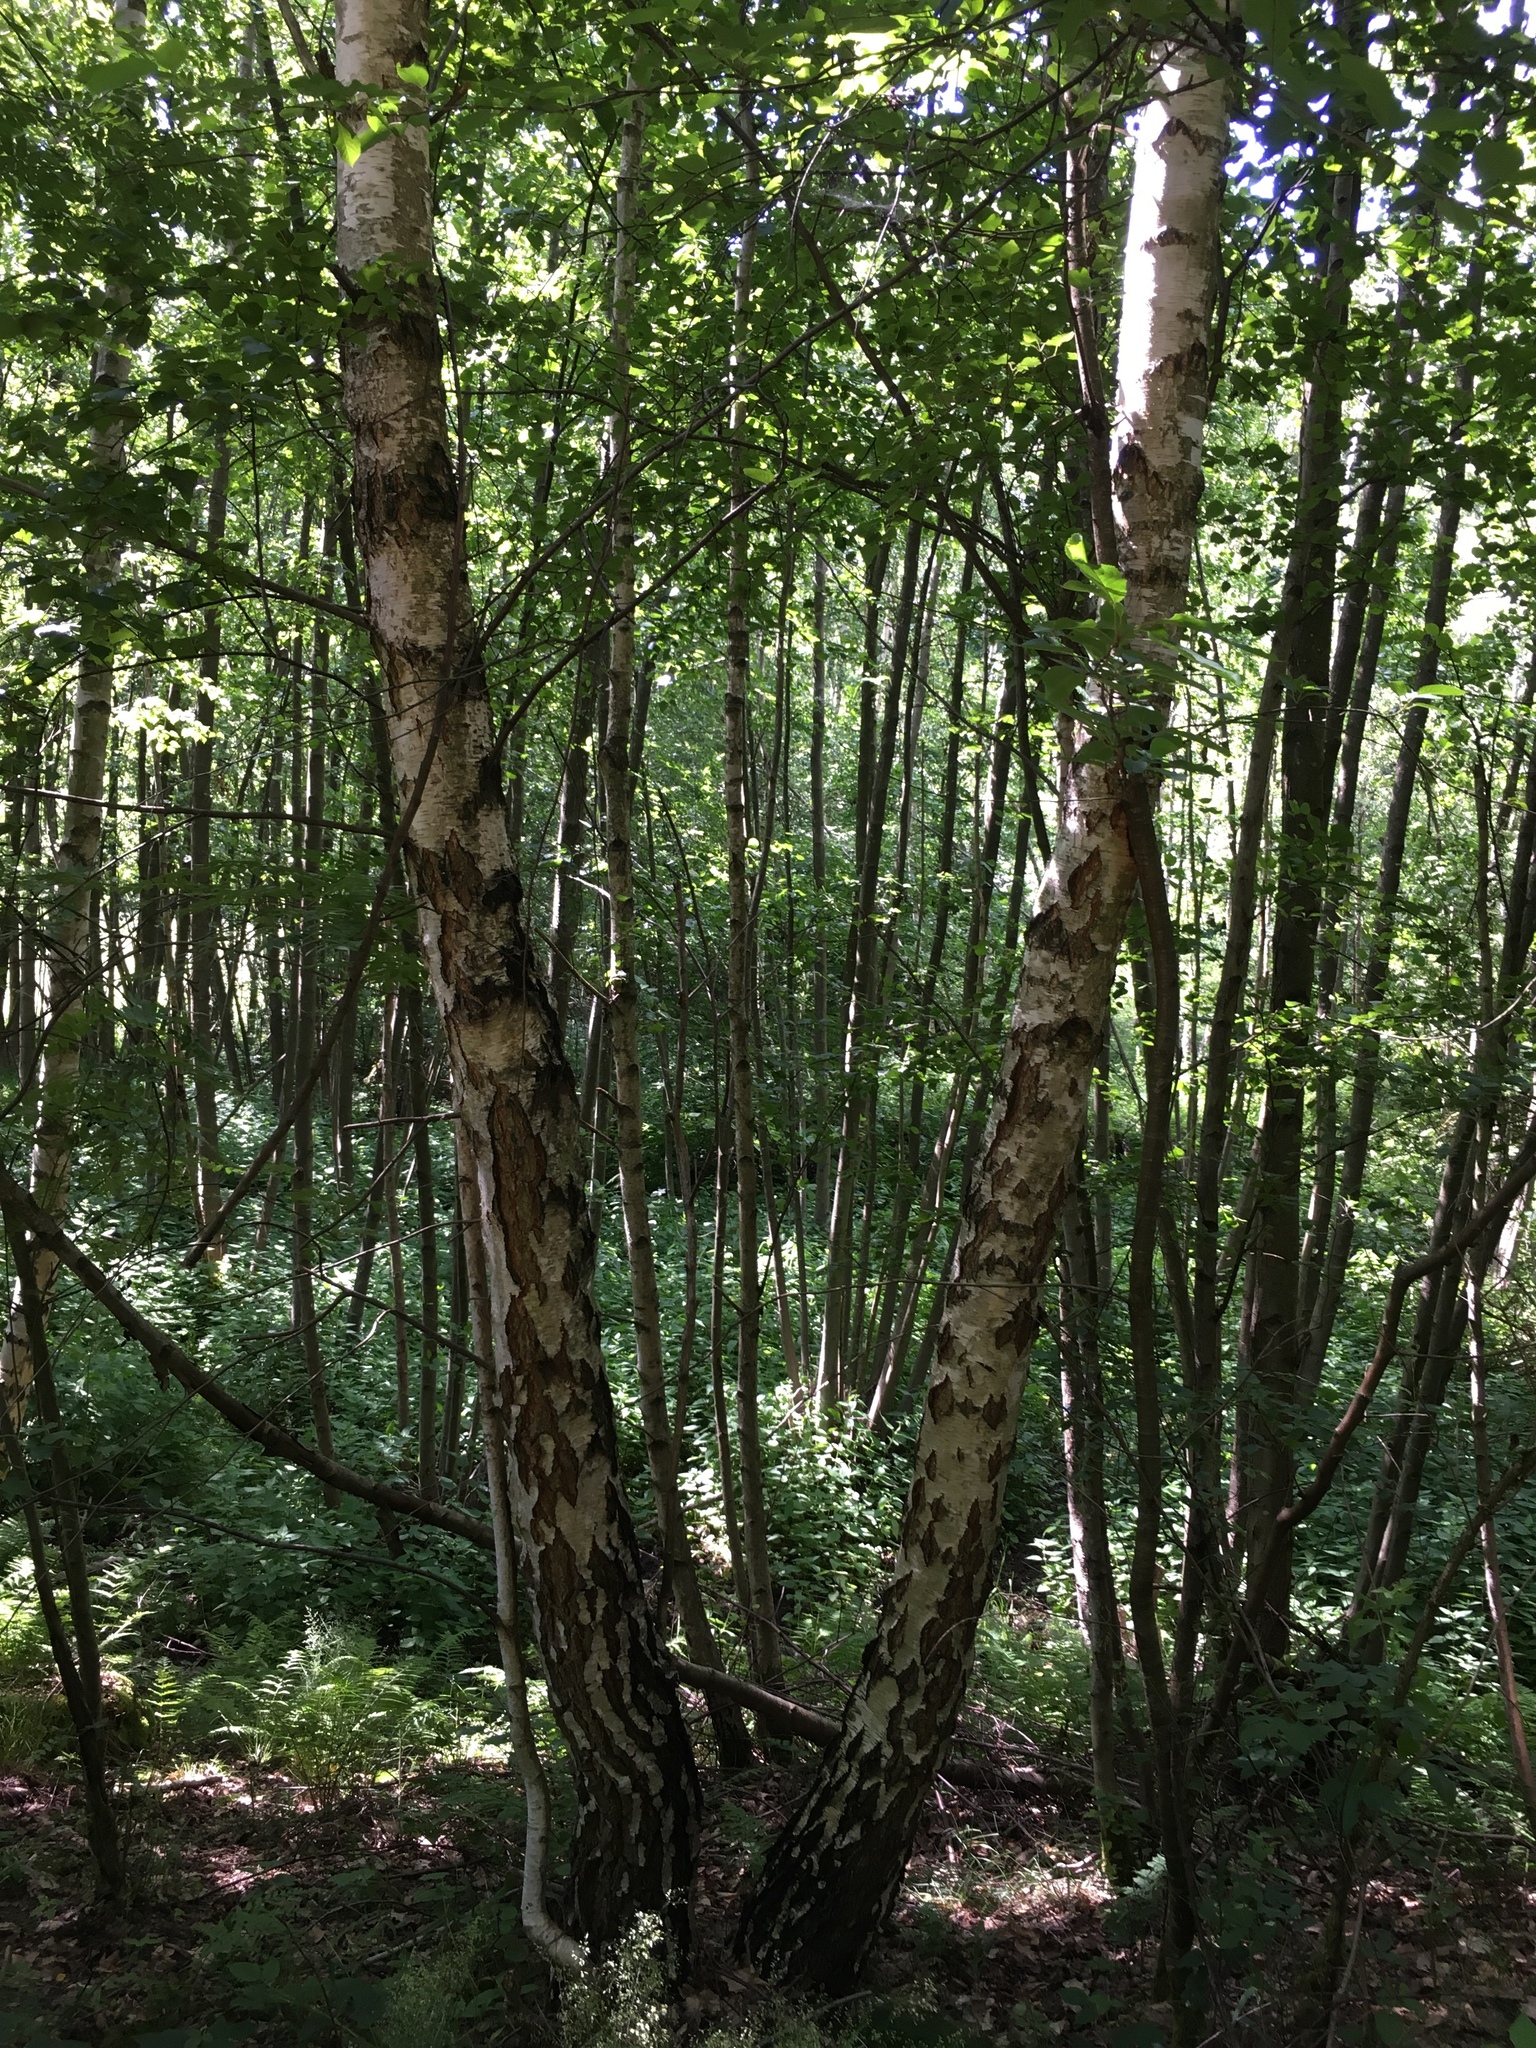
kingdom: Plantae
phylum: Tracheophyta
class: Magnoliopsida
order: Fagales
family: Betulaceae
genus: Betula
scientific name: Betula pendula
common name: Silver birch
